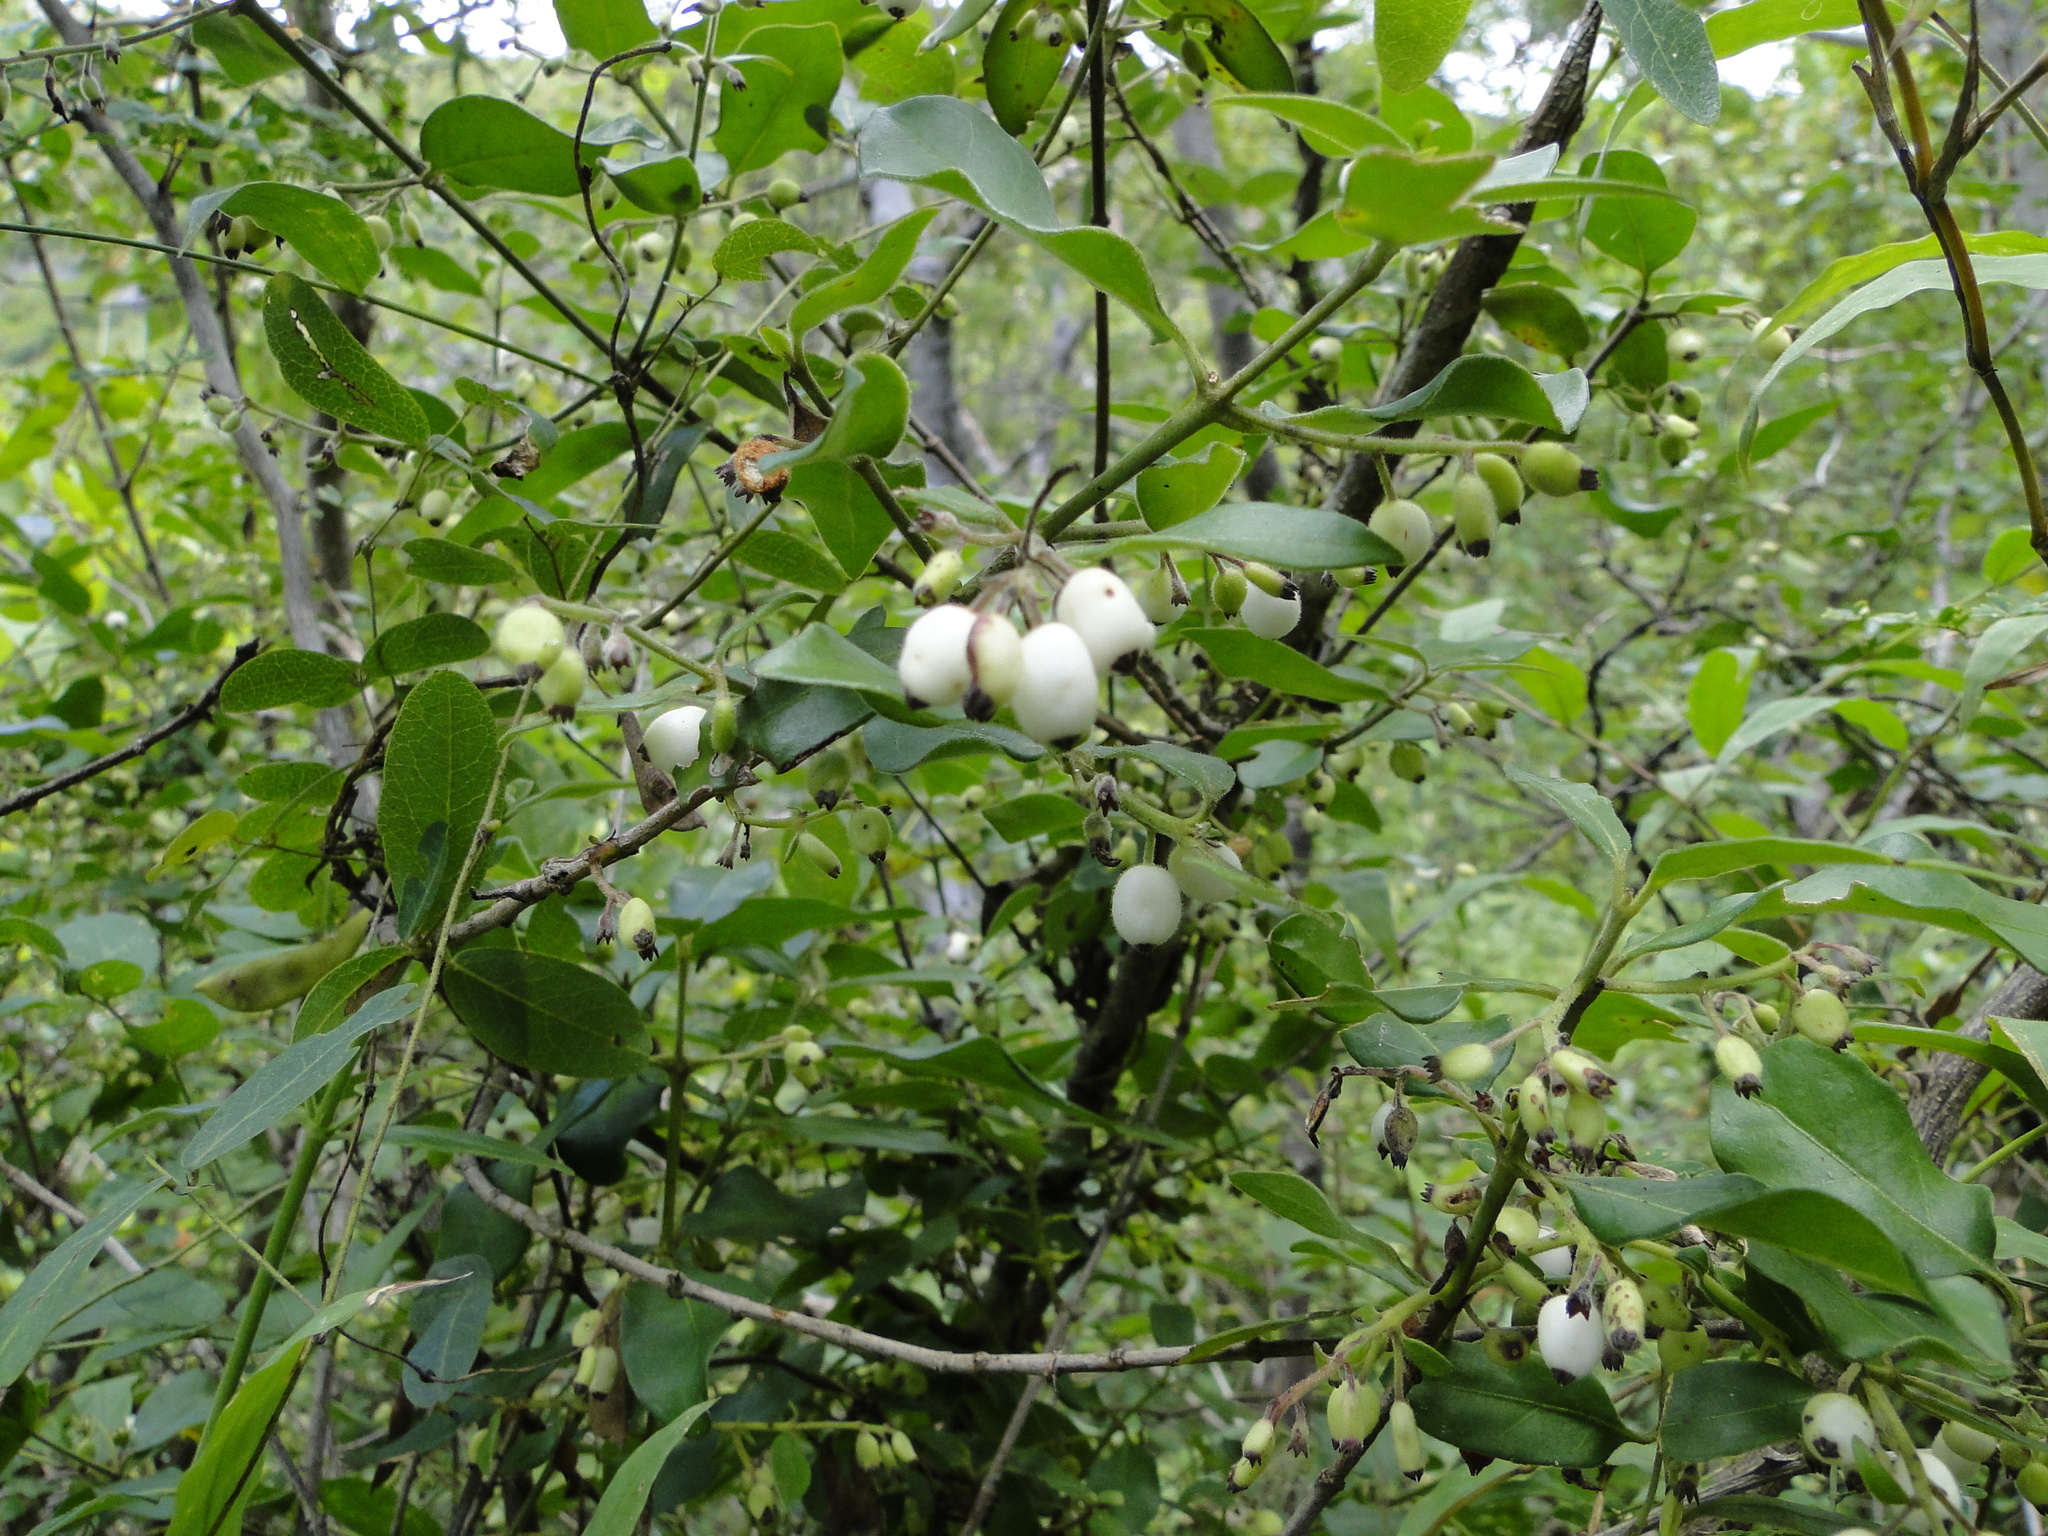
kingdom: Plantae
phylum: Tracheophyta
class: Magnoliopsida
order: Gentianales
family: Rubiaceae
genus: Chiococca
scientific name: Chiococca oaxacana
